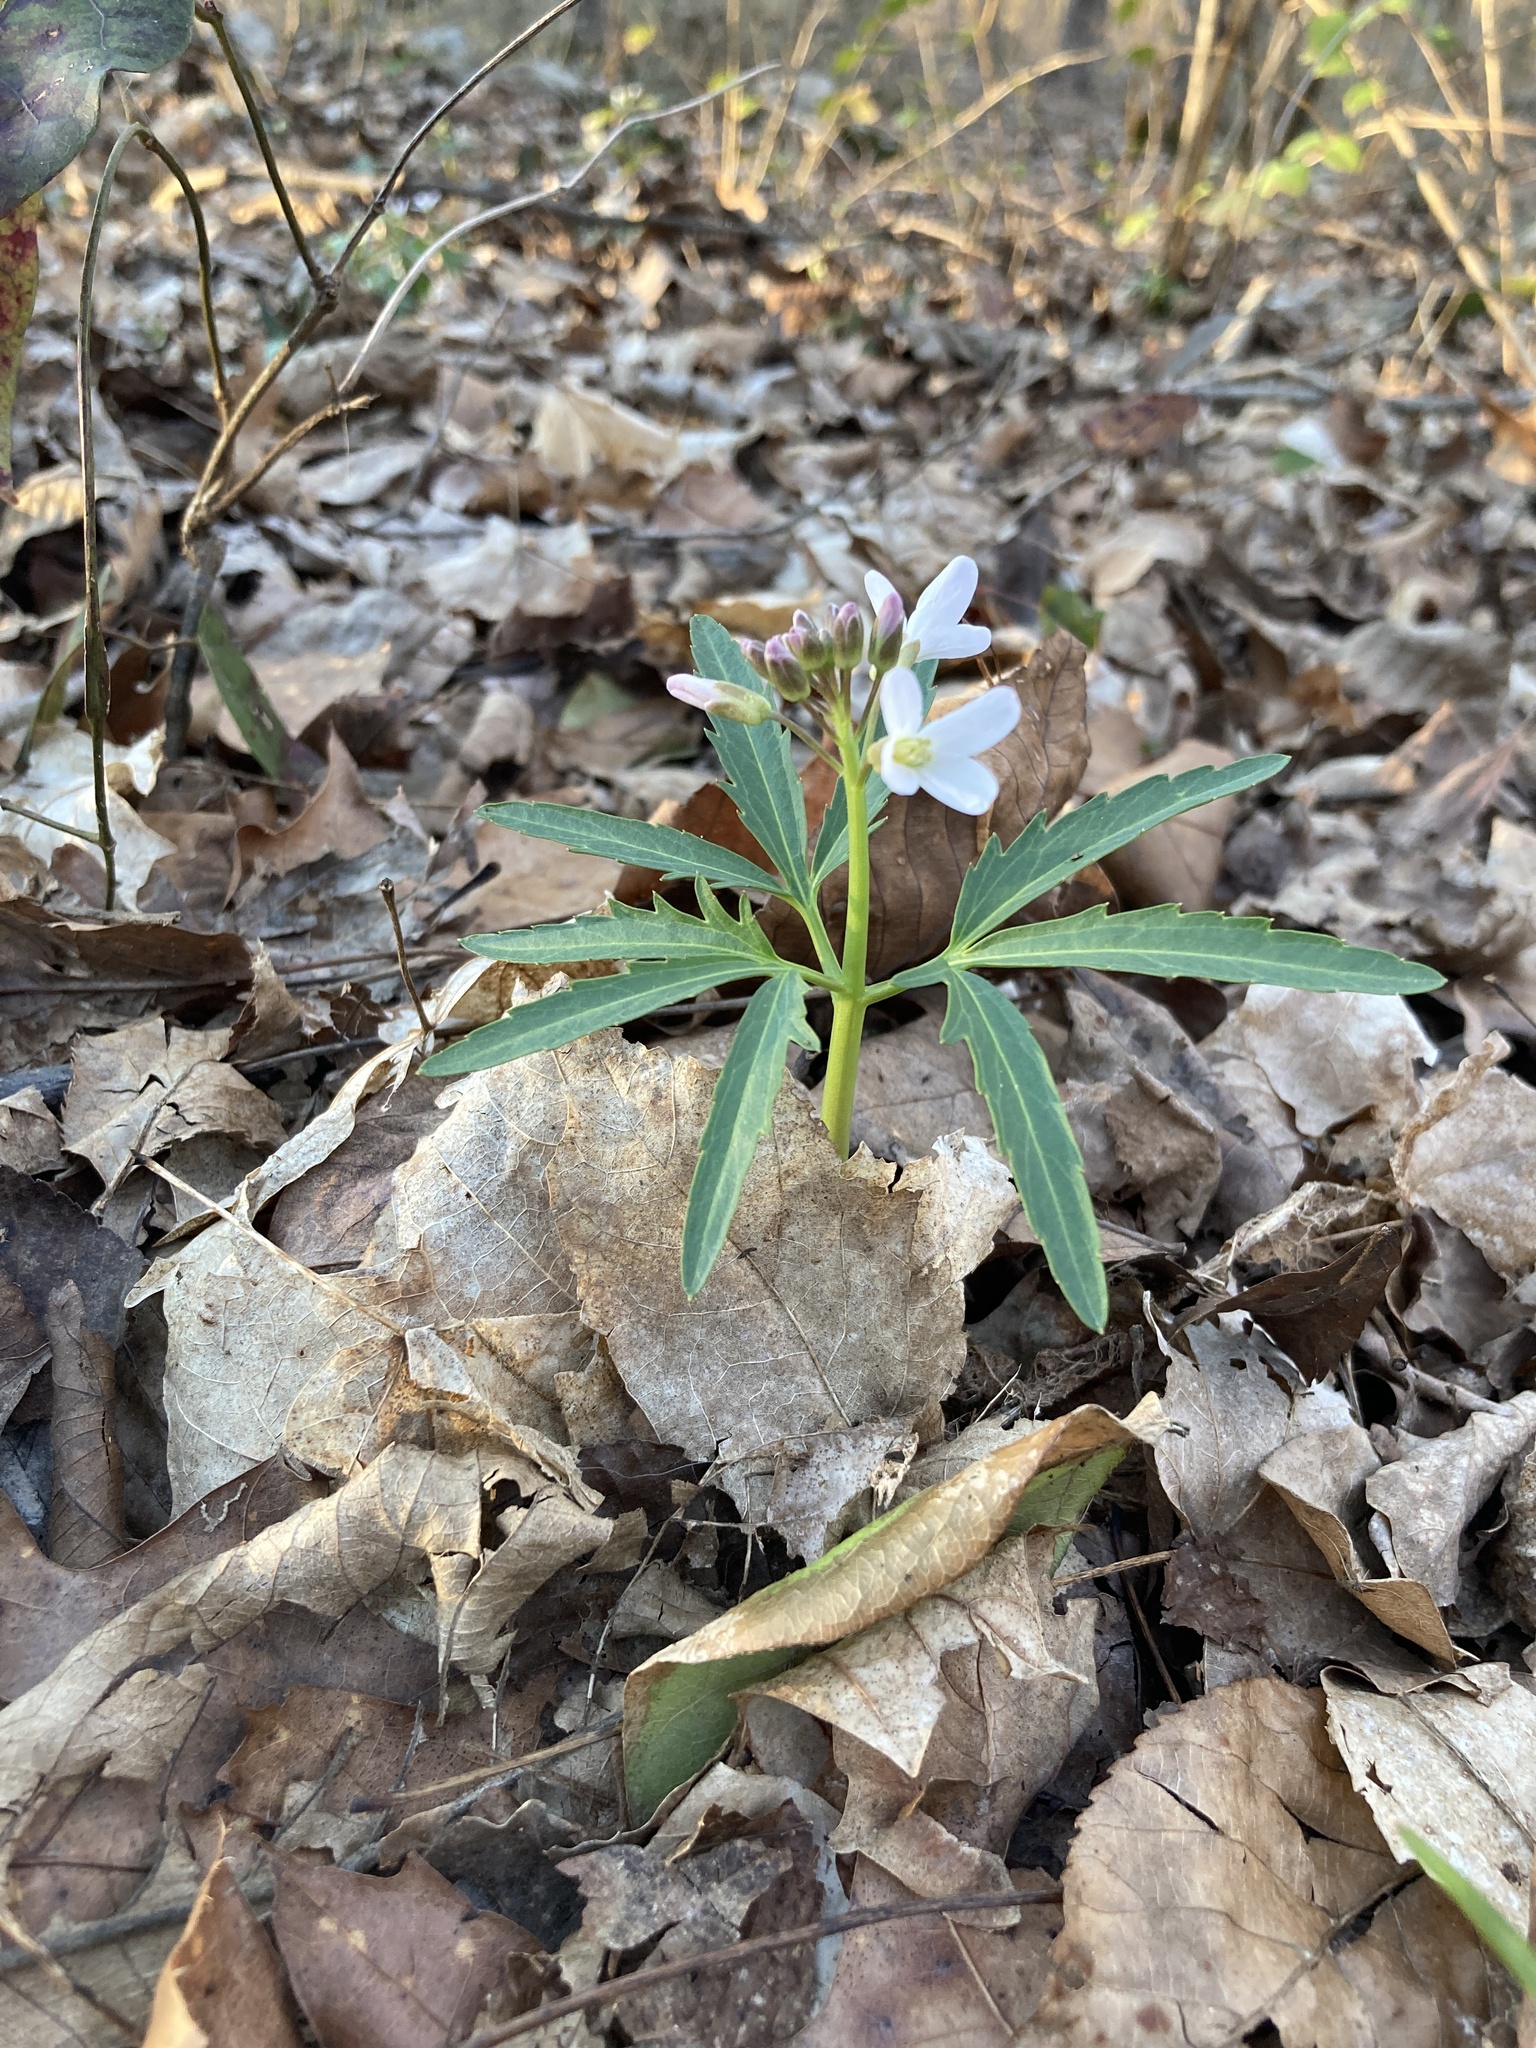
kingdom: Plantae
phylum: Tracheophyta
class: Magnoliopsida
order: Brassicales
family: Brassicaceae
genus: Cardamine
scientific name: Cardamine concatenata
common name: Cut-leaf toothcup
